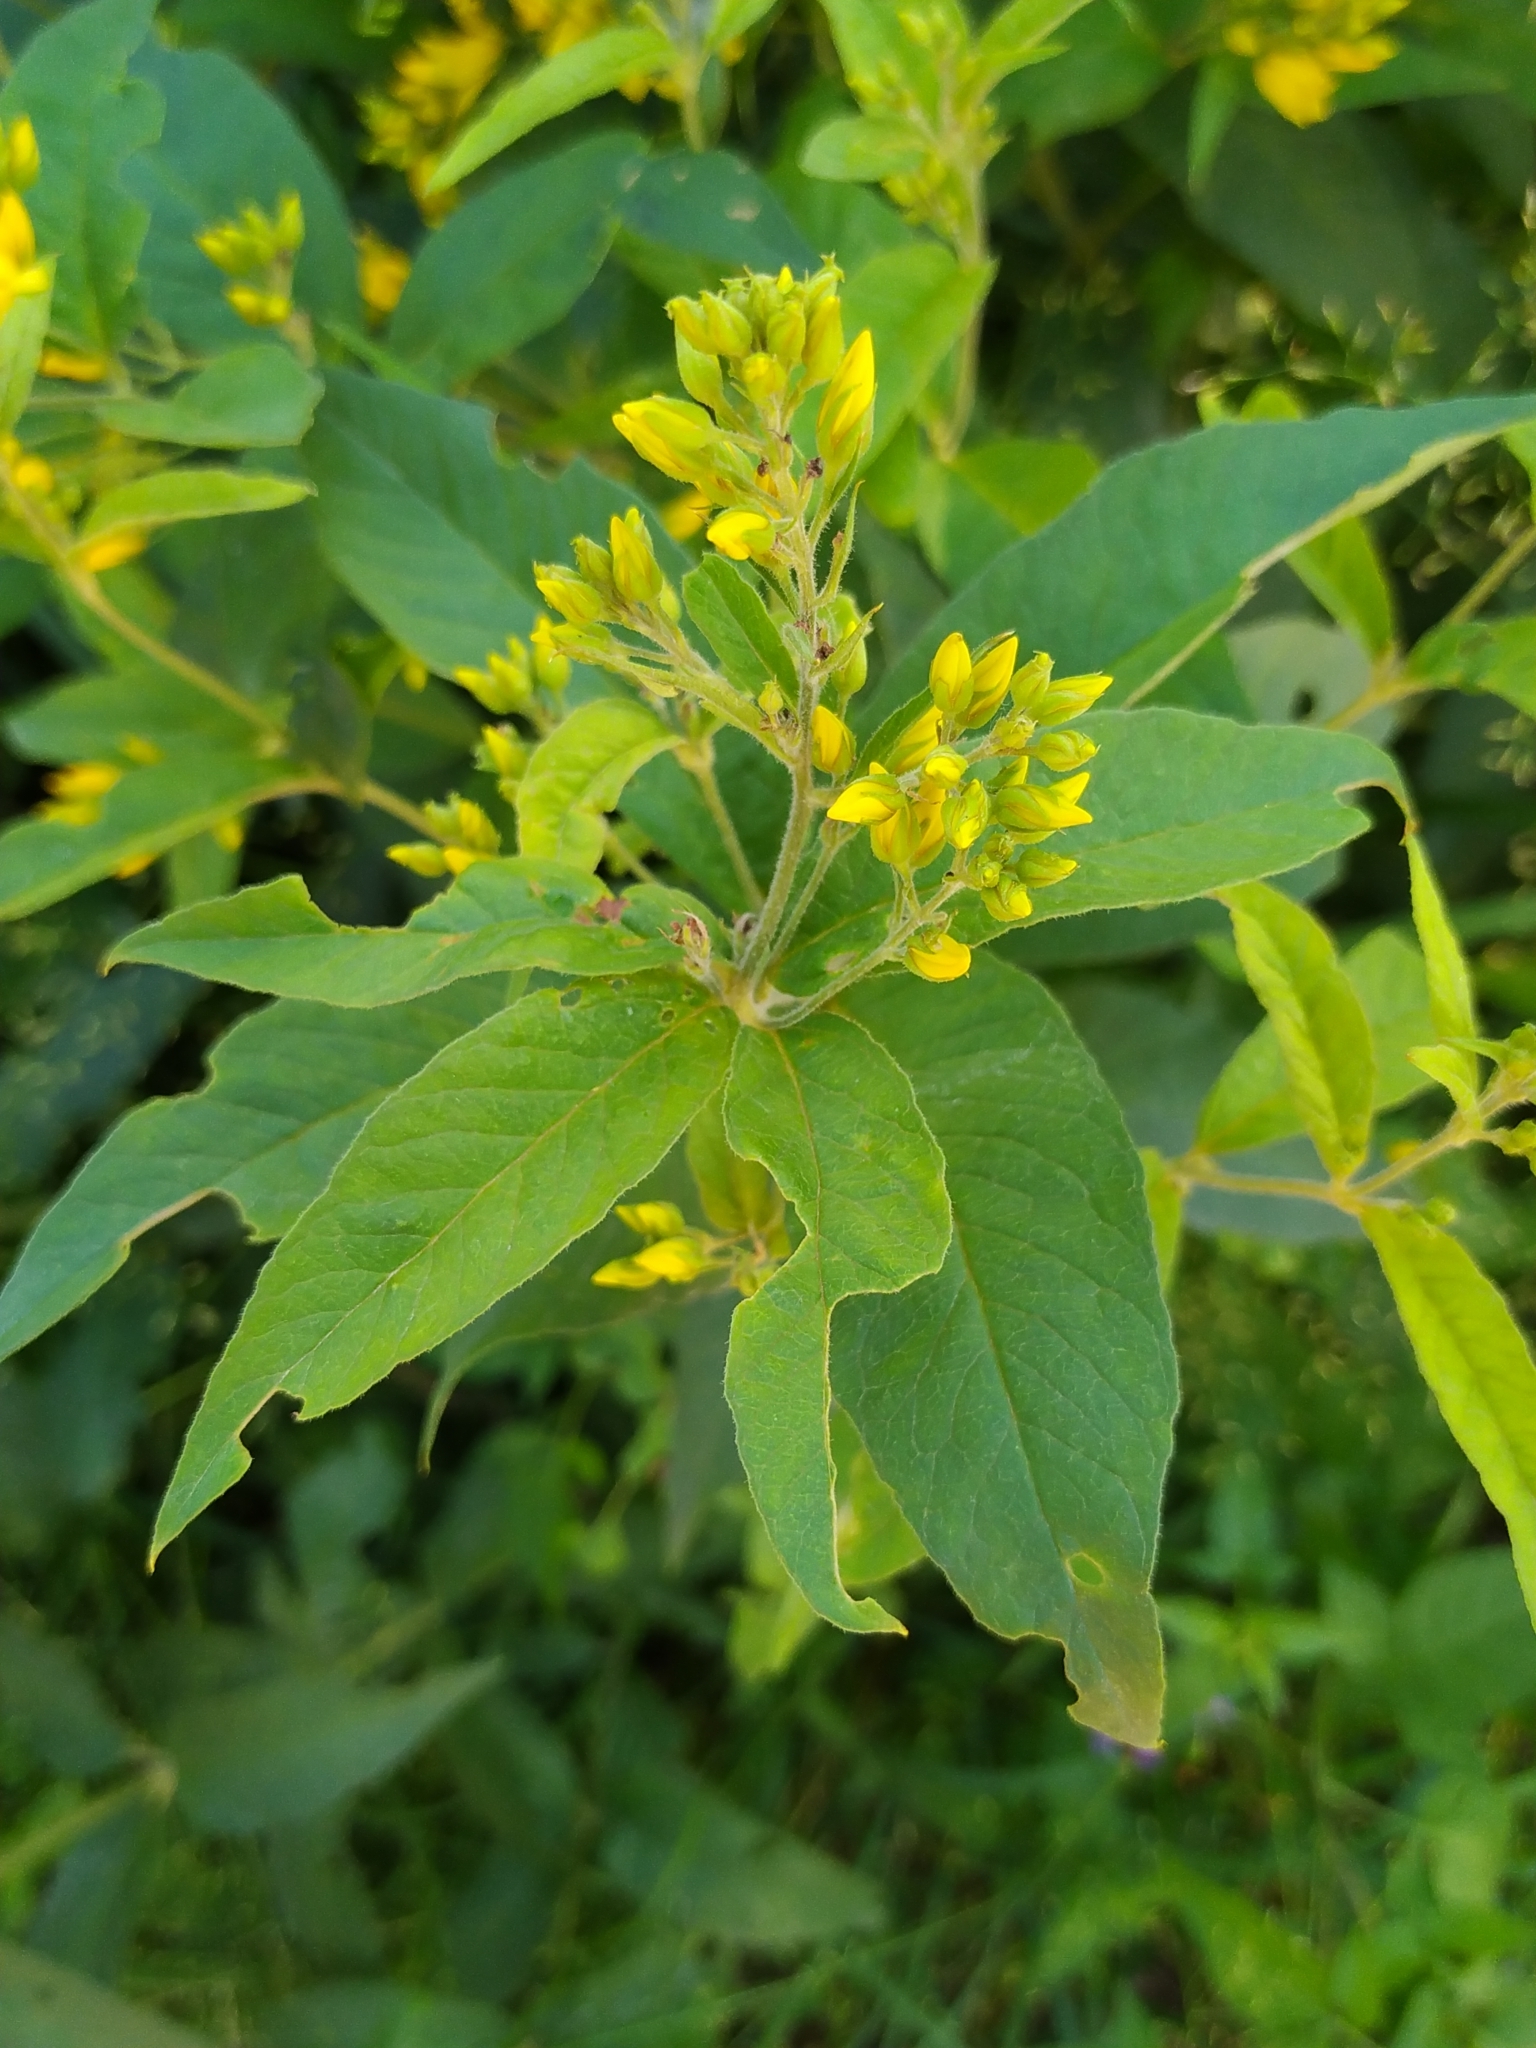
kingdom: Plantae
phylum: Tracheophyta
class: Magnoliopsida
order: Ericales
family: Primulaceae
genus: Lysimachia
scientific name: Lysimachia vulgaris
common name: Yellow loosestrife
